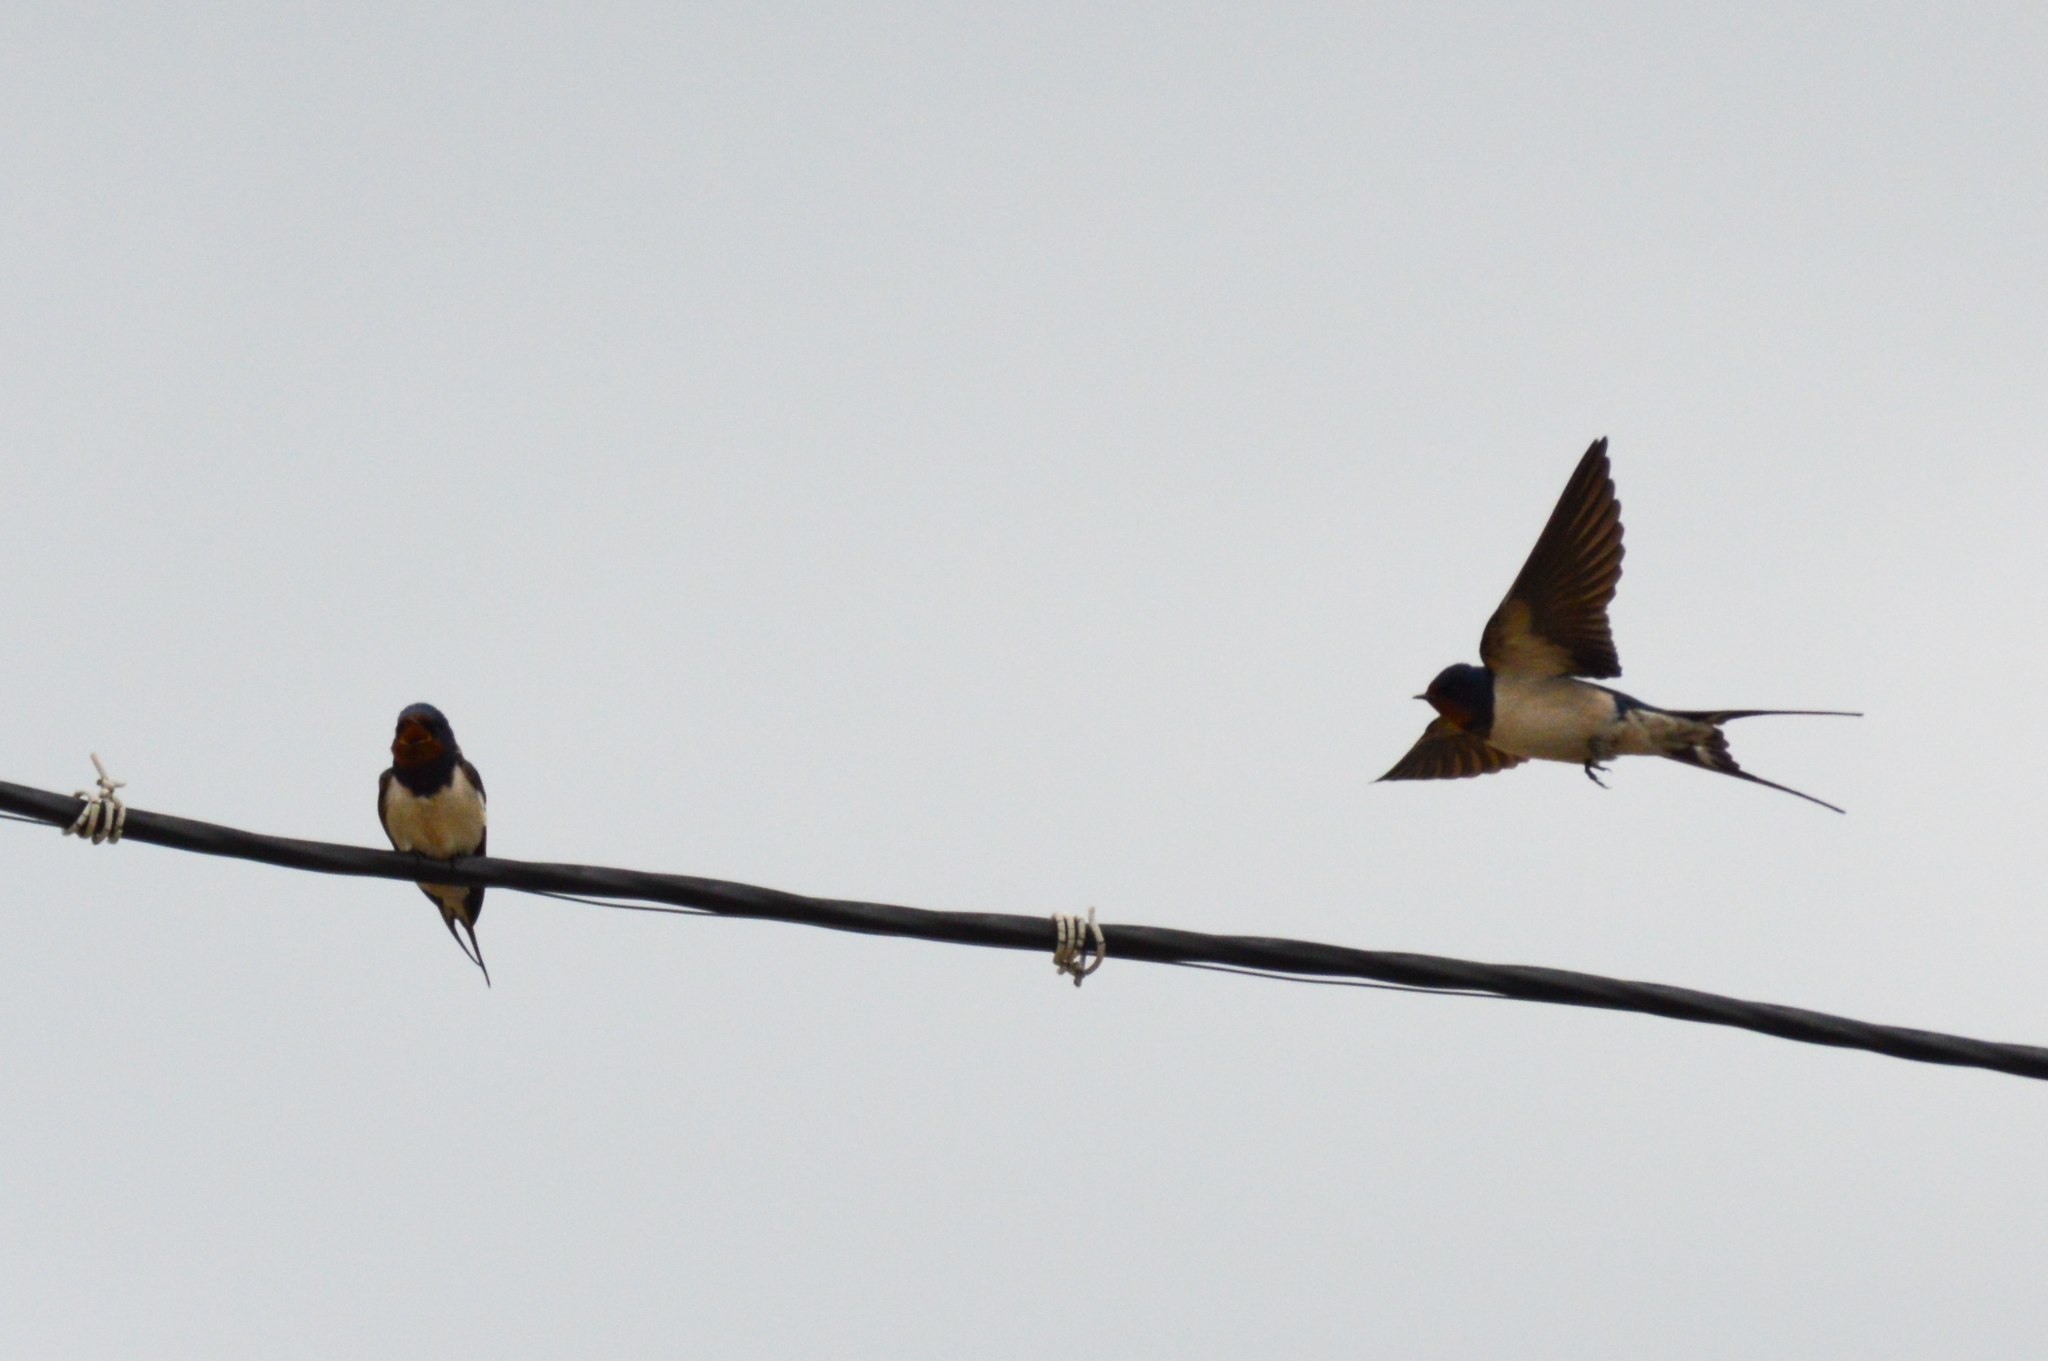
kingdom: Animalia
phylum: Chordata
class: Aves
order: Passeriformes
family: Hirundinidae
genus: Hirundo
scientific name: Hirundo rustica
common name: Barn swallow
